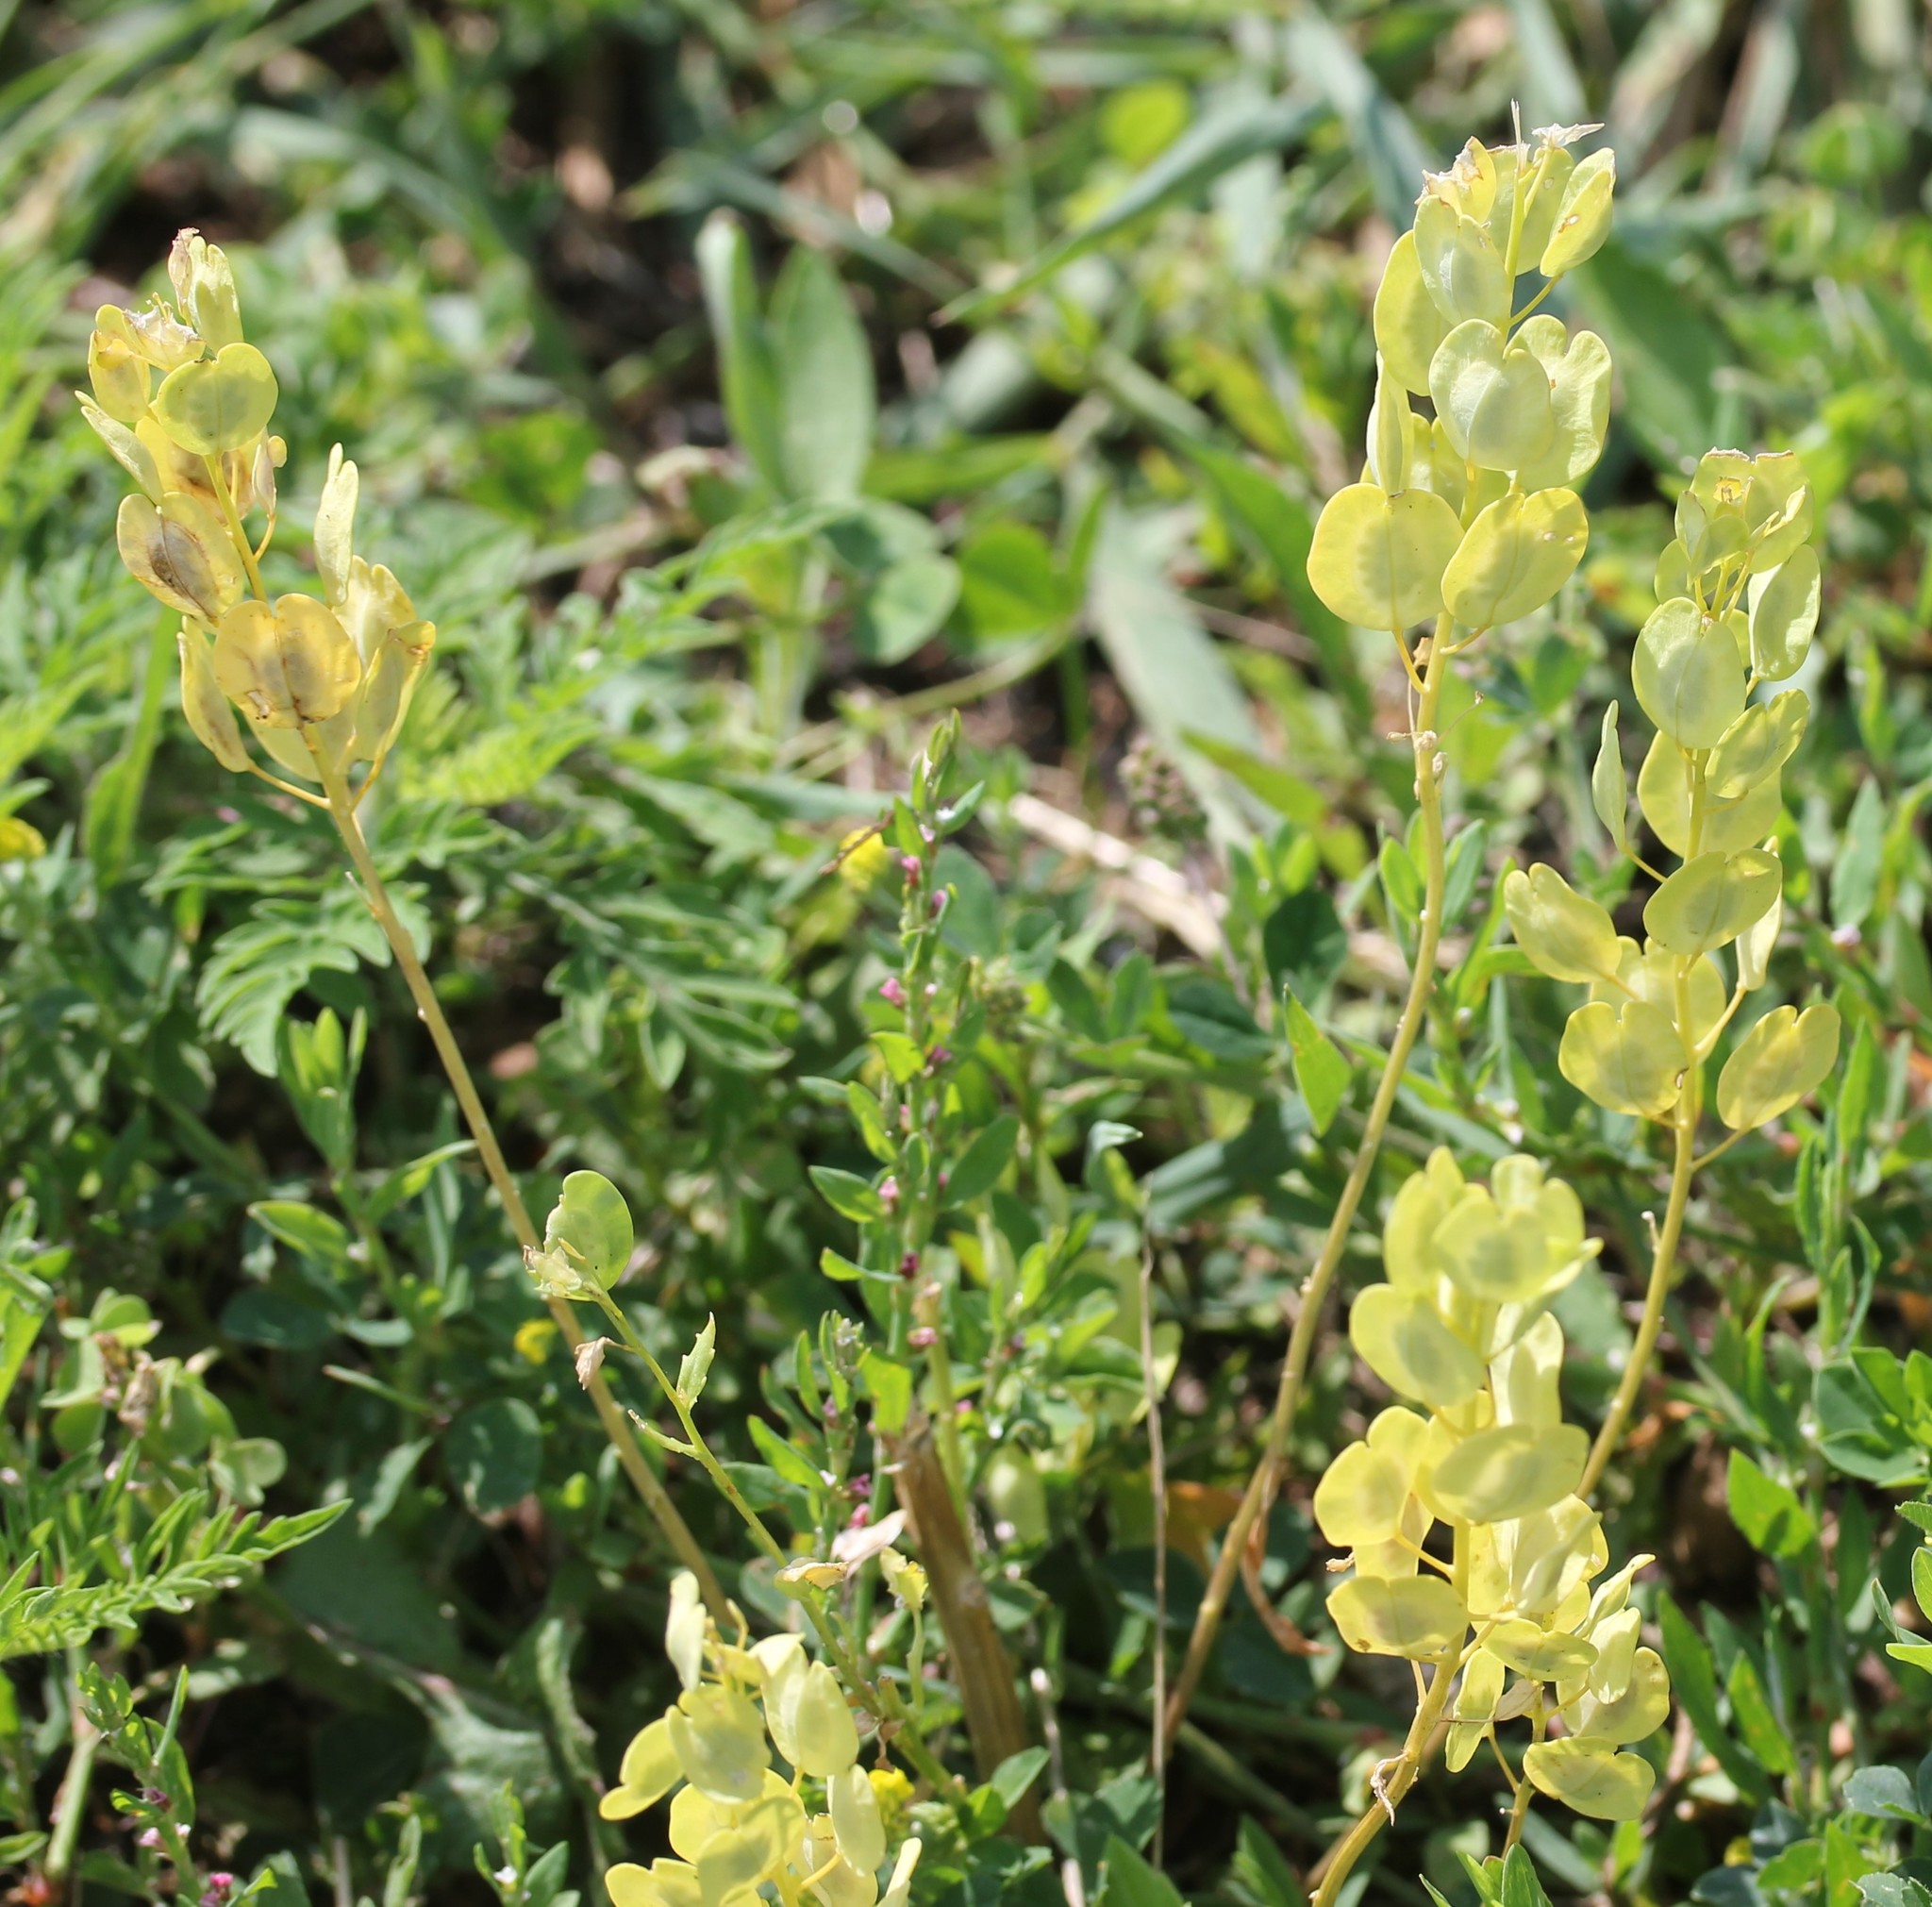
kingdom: Plantae
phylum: Tracheophyta
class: Magnoliopsida
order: Brassicales
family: Brassicaceae
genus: Thlaspi
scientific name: Thlaspi arvense
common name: Field pennycress
